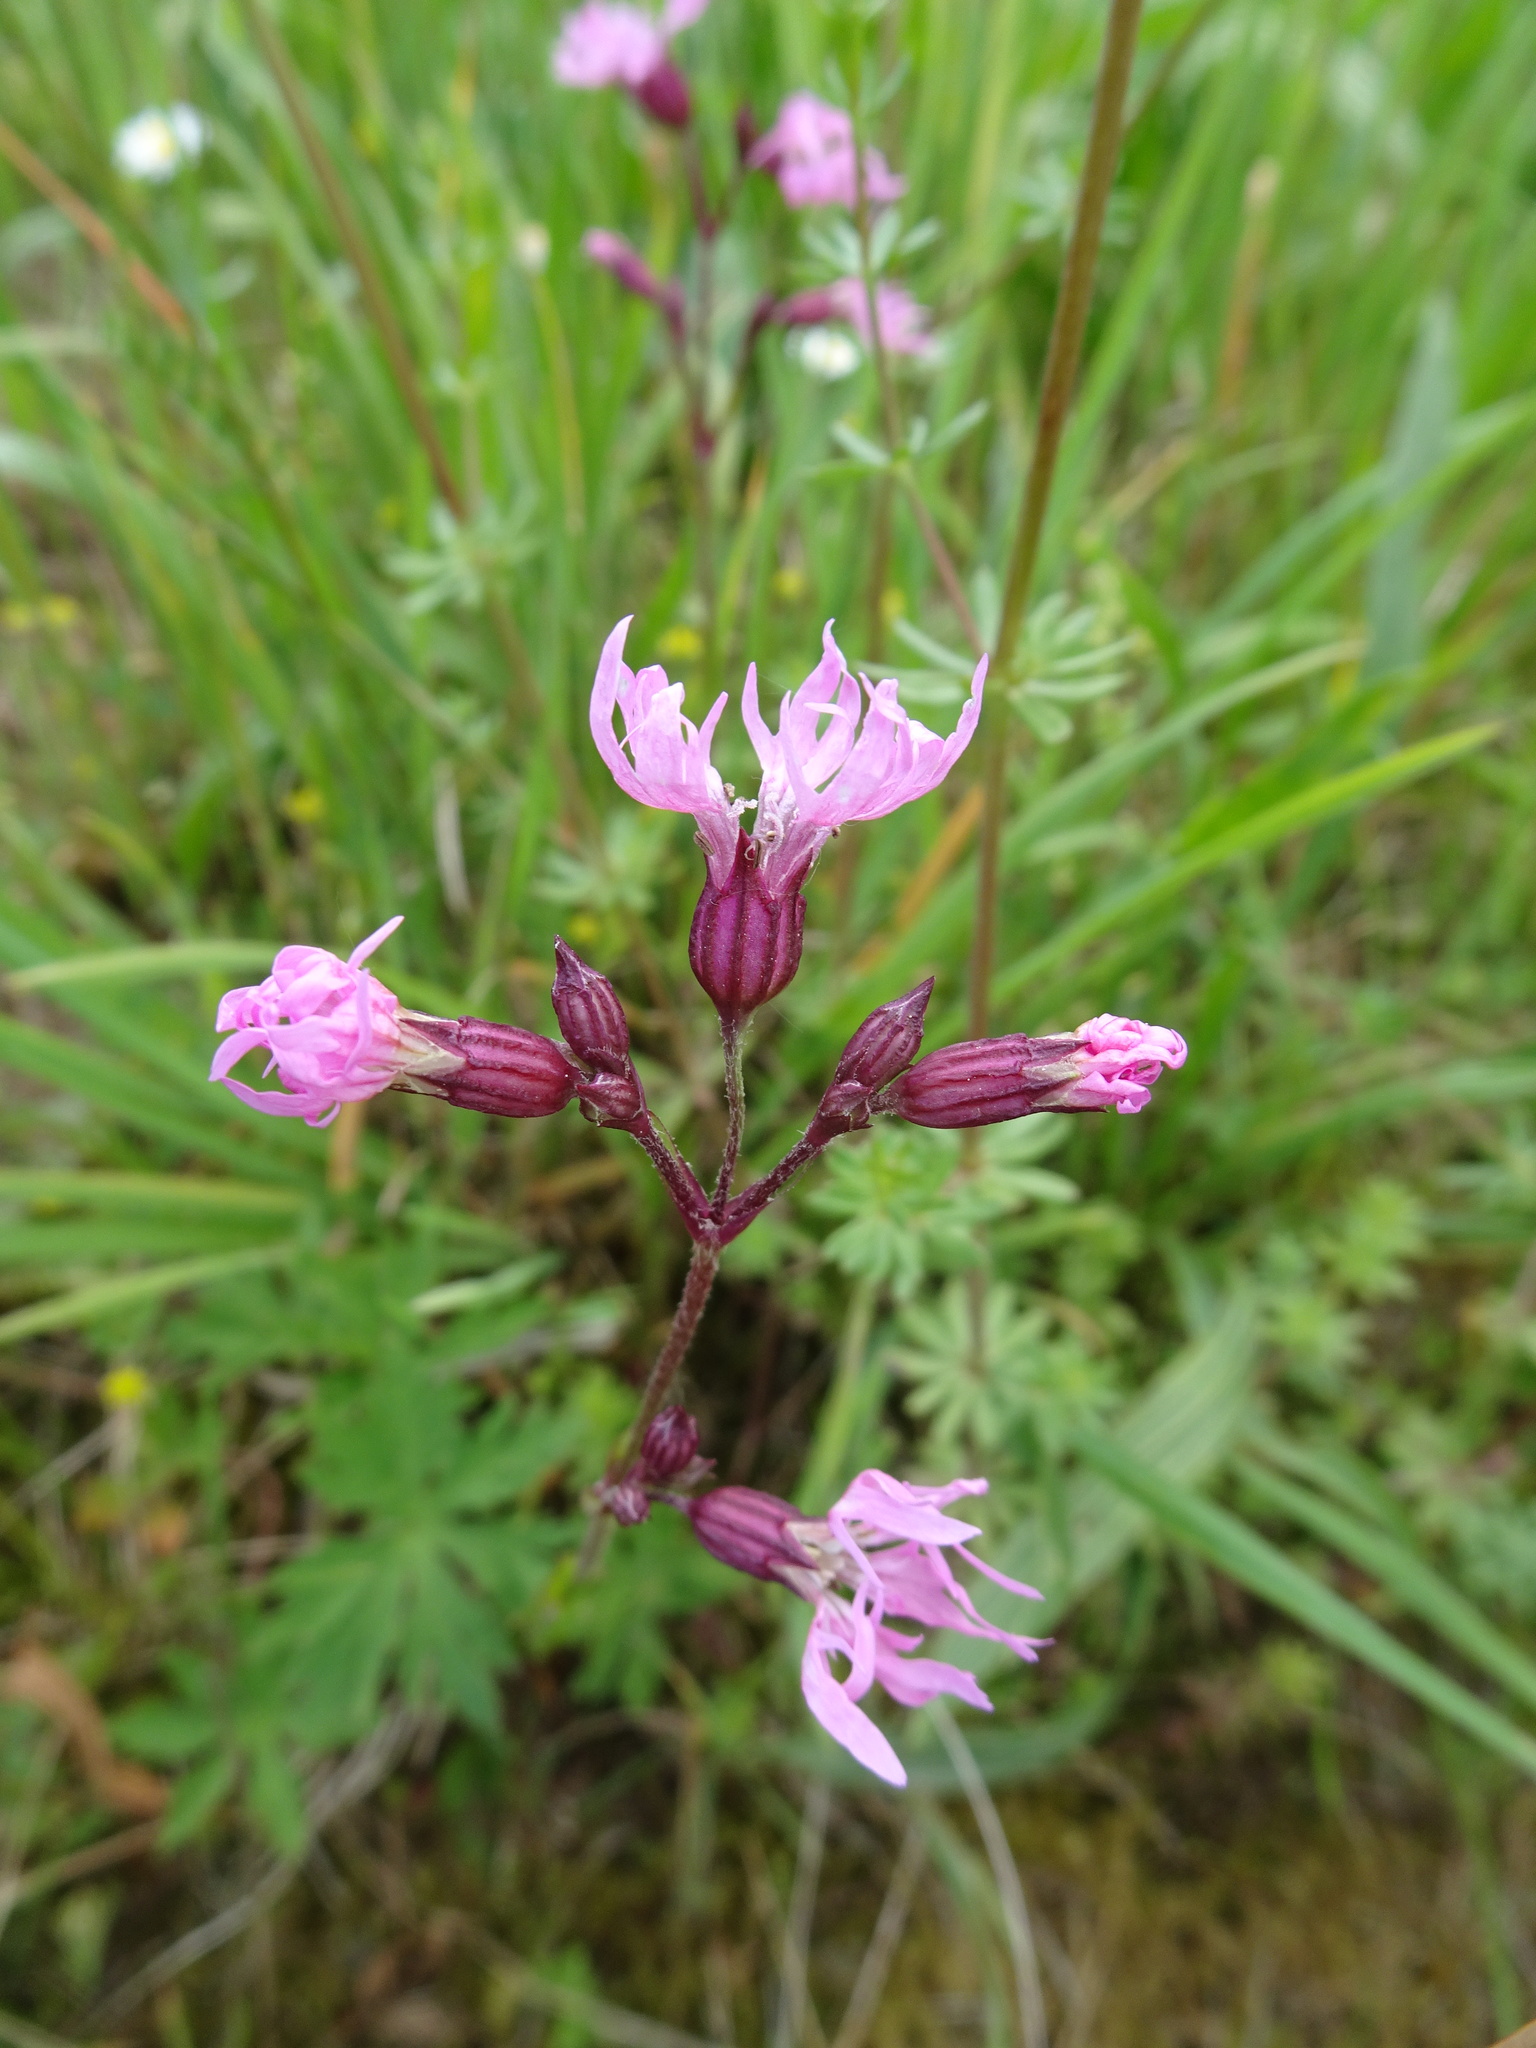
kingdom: Plantae
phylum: Tracheophyta
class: Magnoliopsida
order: Caryophyllales
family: Caryophyllaceae
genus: Silene
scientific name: Silene flos-cuculi
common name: Ragged-robin
